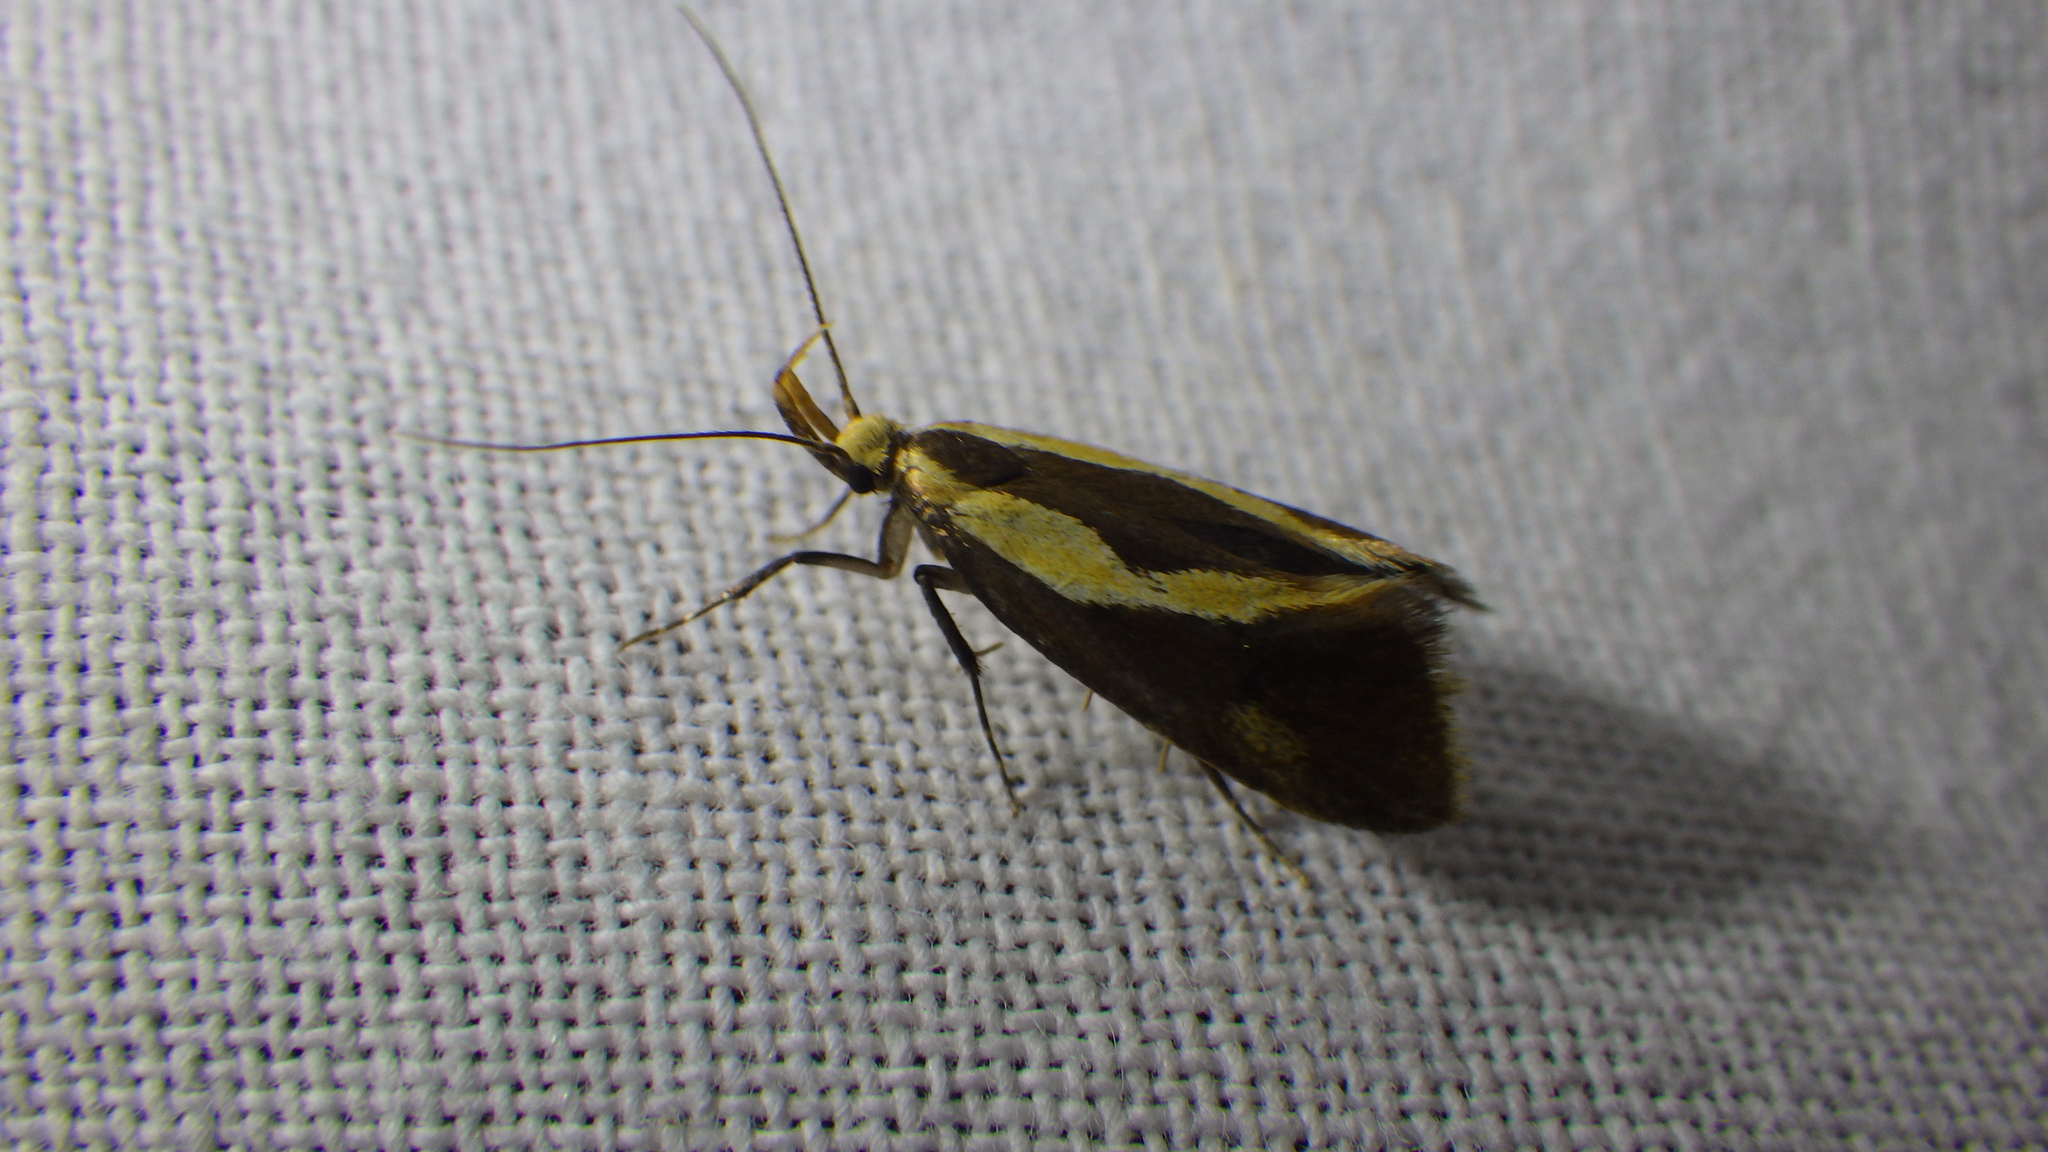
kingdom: Animalia
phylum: Arthropoda
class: Insecta
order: Lepidoptera
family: Oecophoridae
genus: Harpella
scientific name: Harpella forficella
